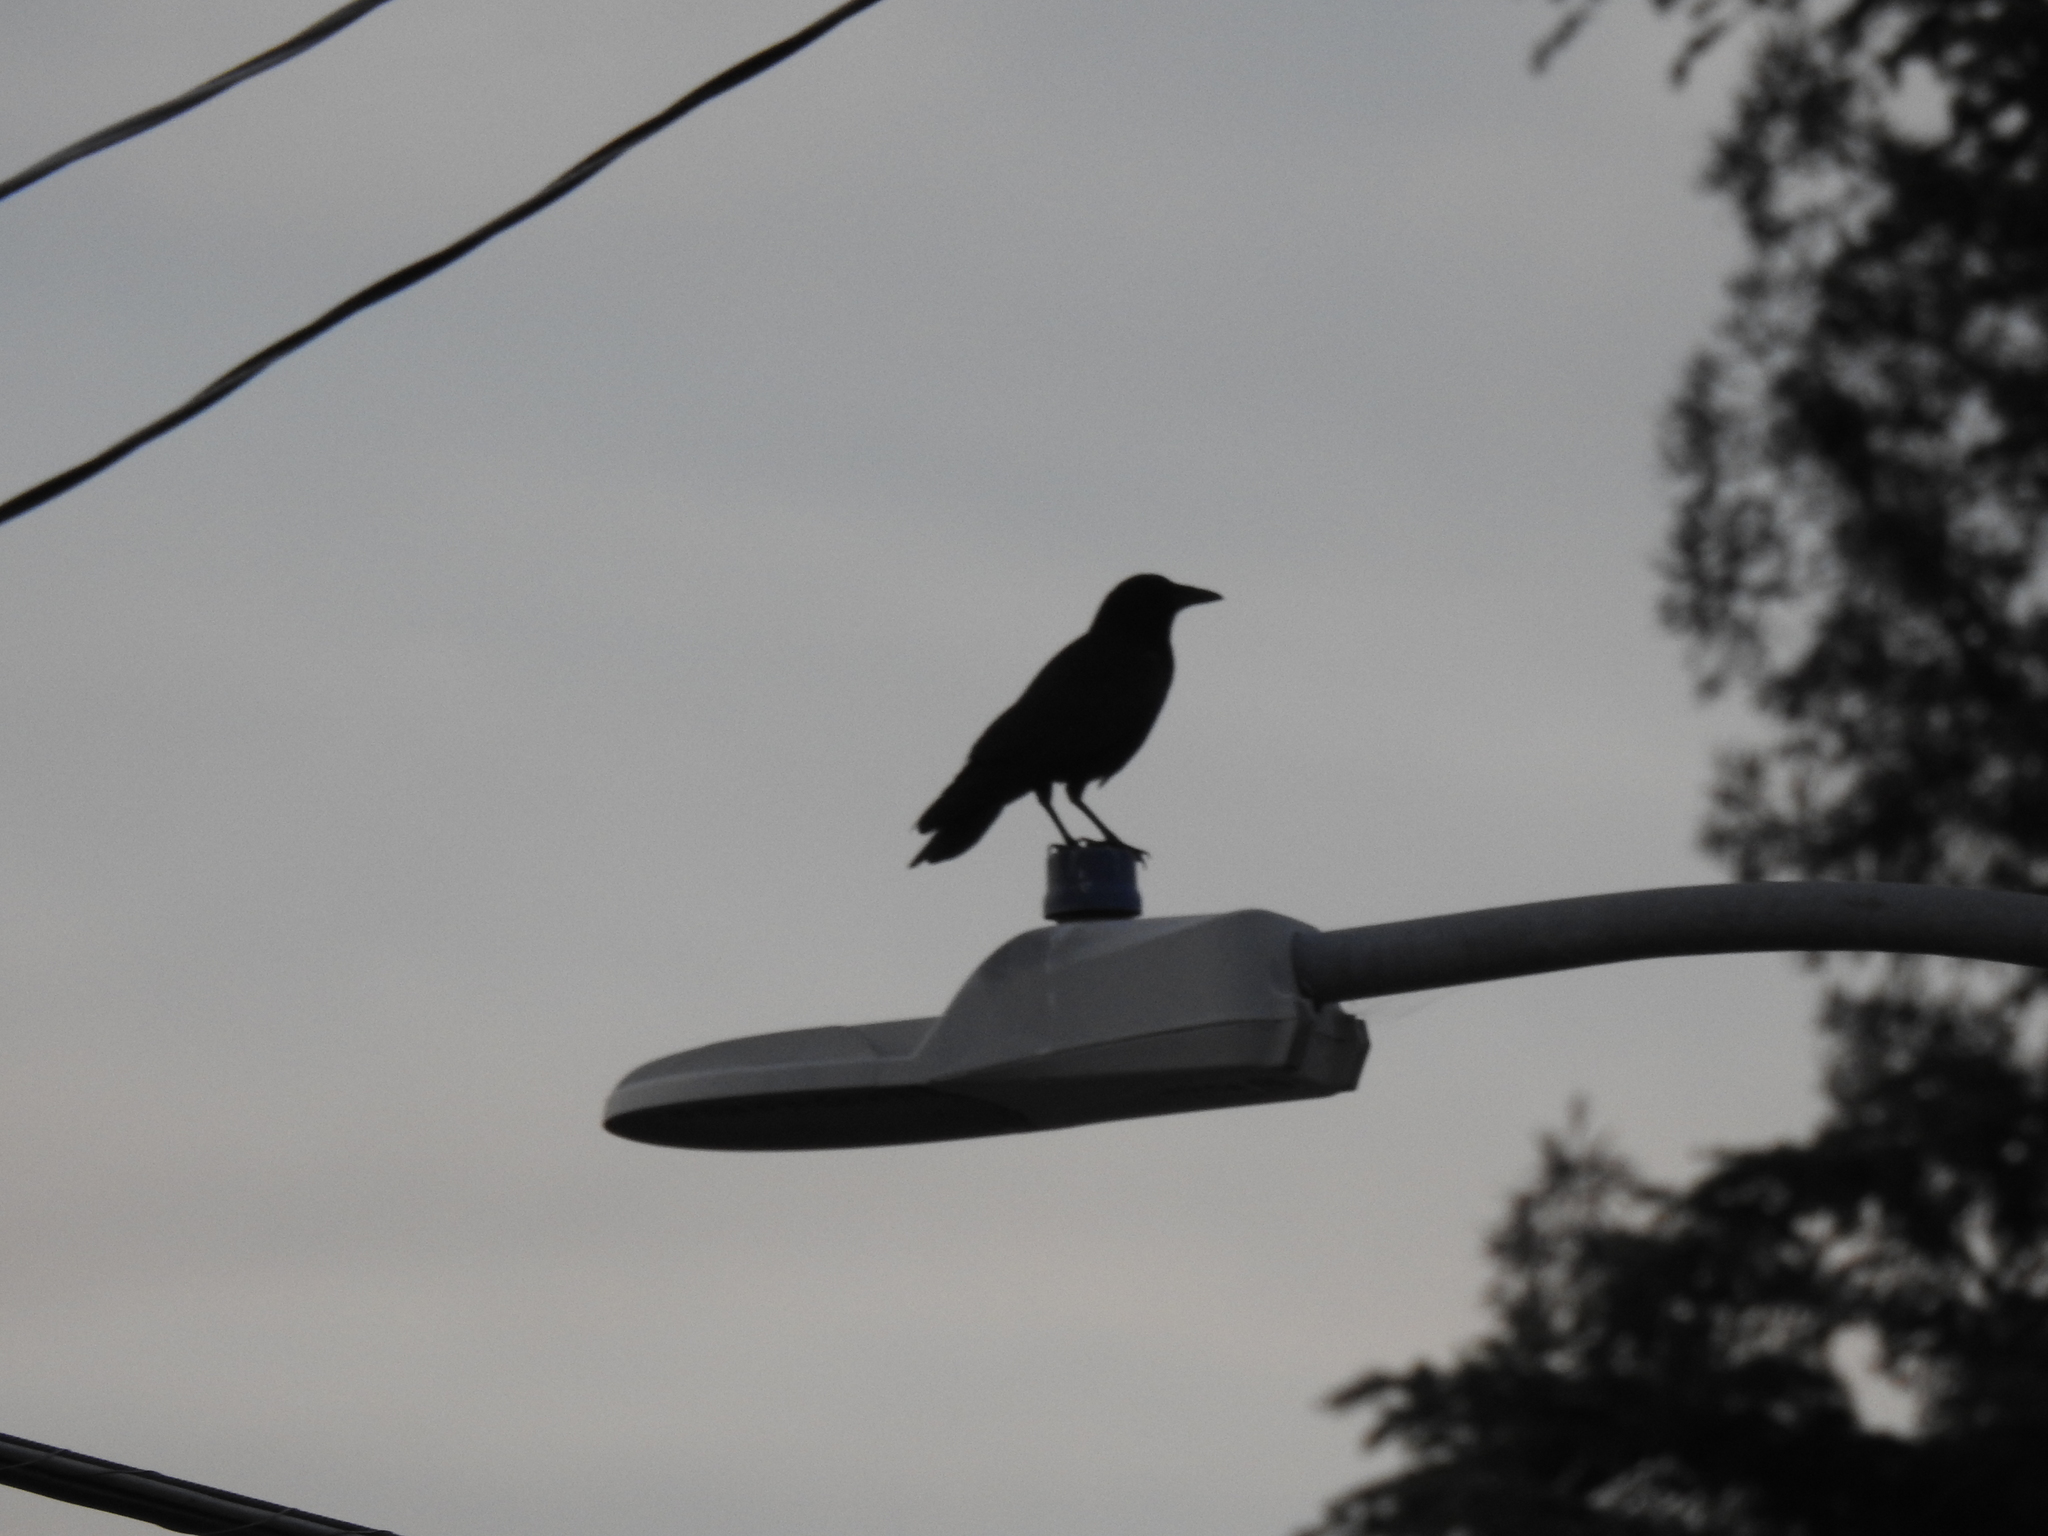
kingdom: Animalia
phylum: Chordata
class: Aves
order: Passeriformes
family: Corvidae
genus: Corvus
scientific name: Corvus brachyrhynchos
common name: American crow
